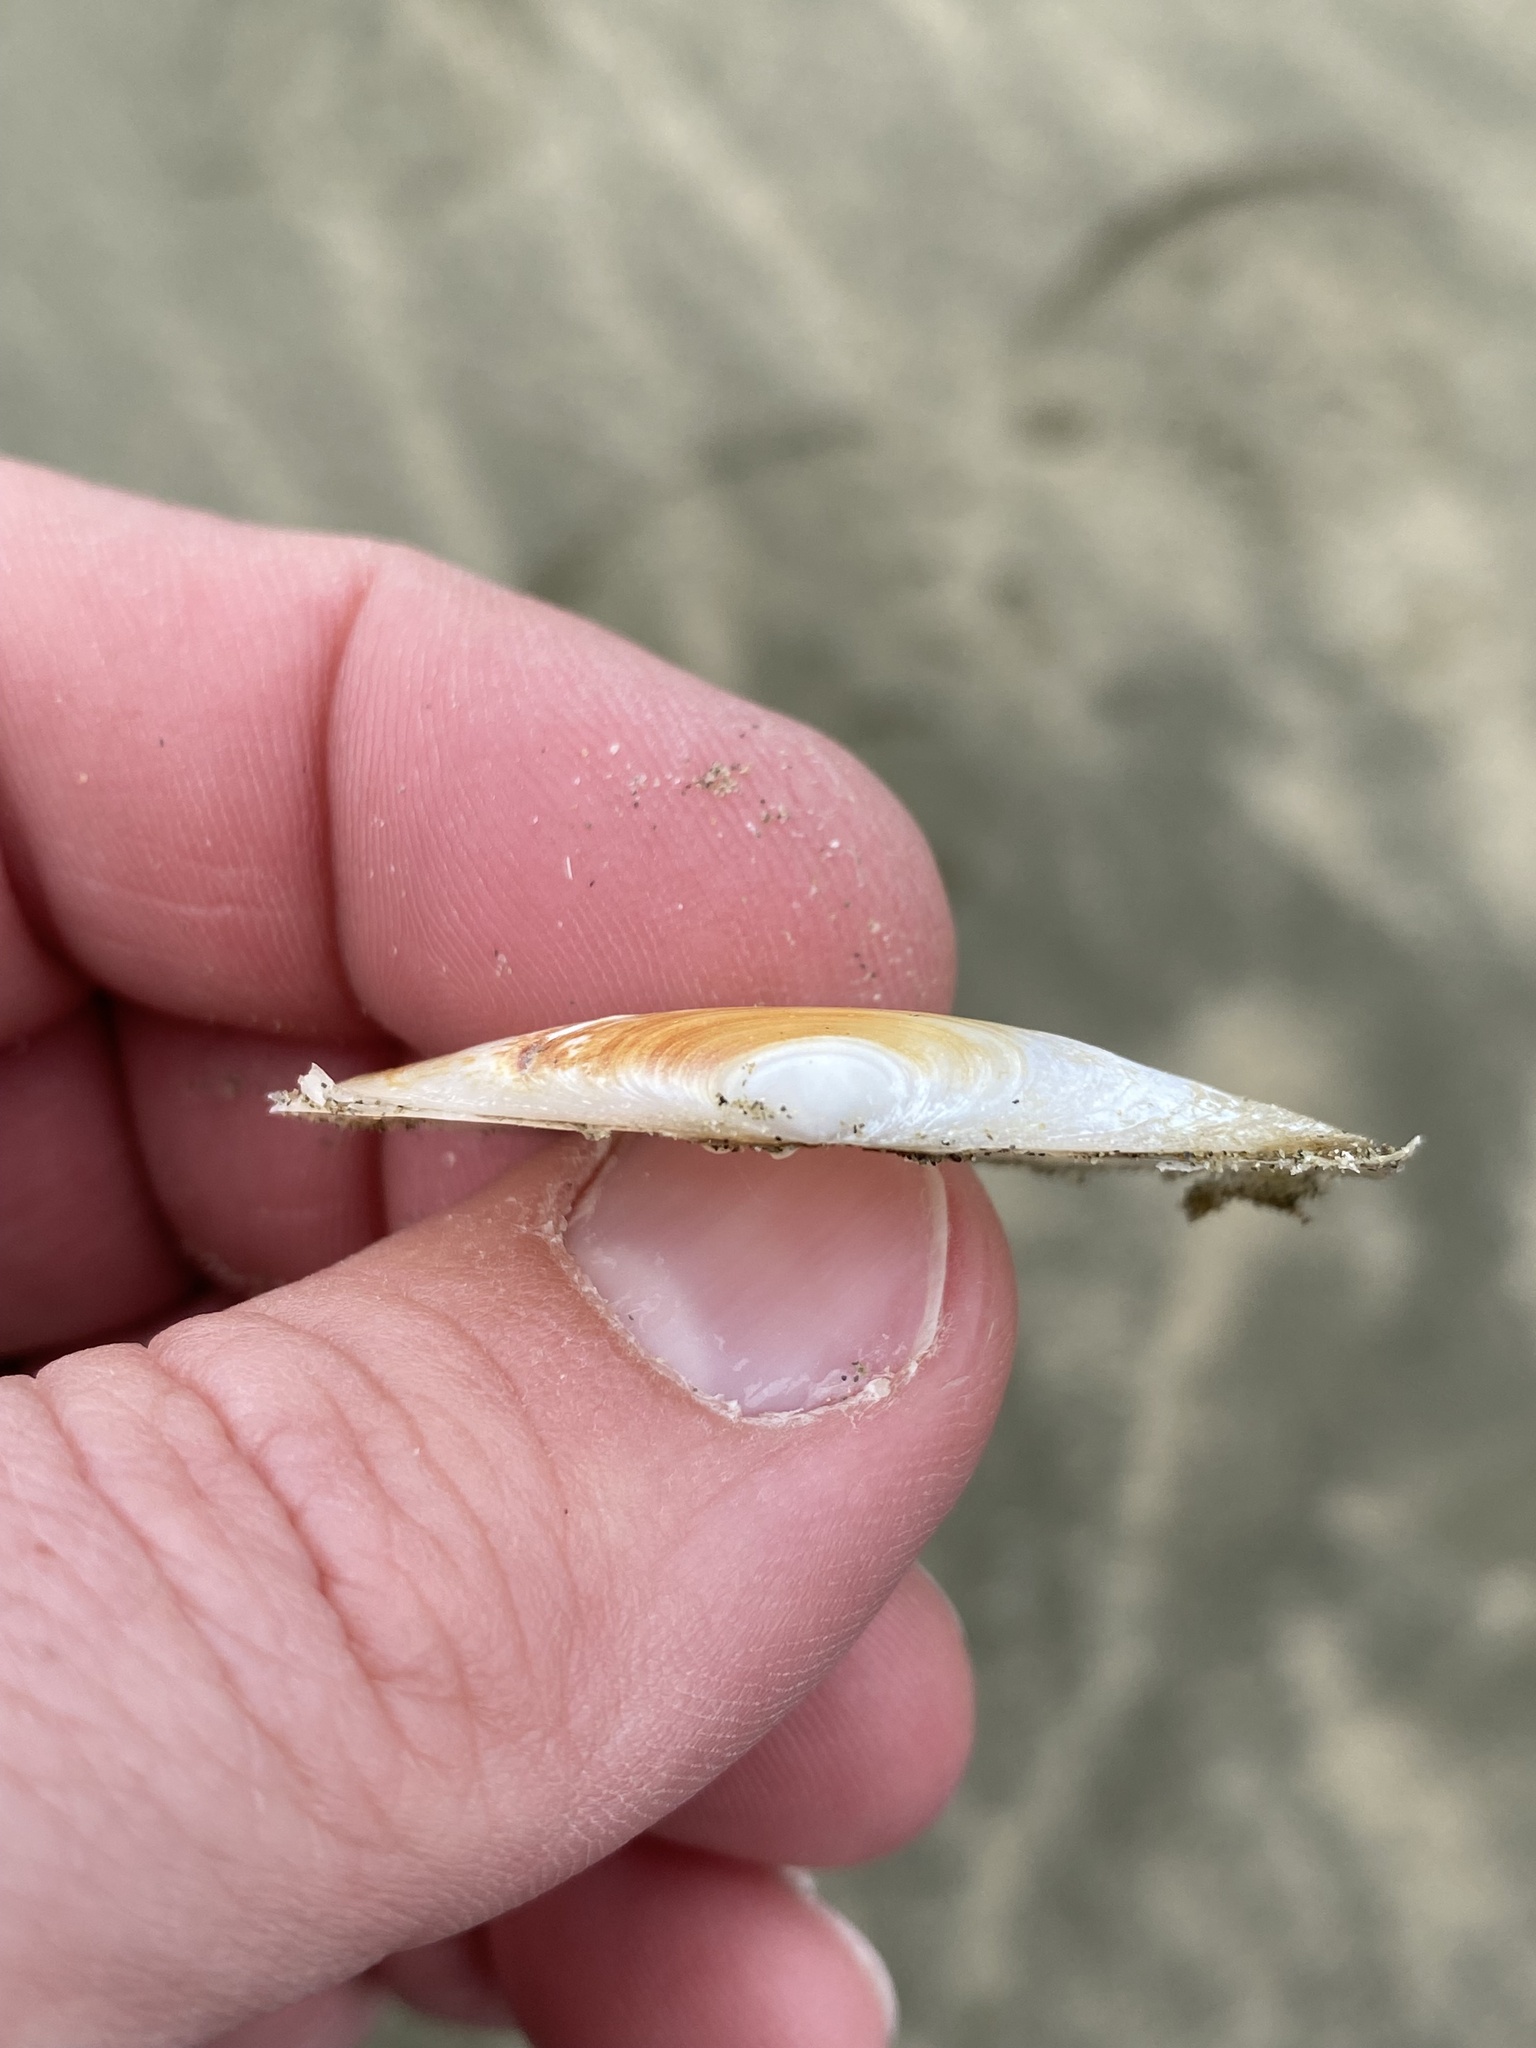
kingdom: Animalia
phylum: Mollusca
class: Bivalvia
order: Venerida
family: Mesodesmatidae
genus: Paphies
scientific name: Paphies australis
